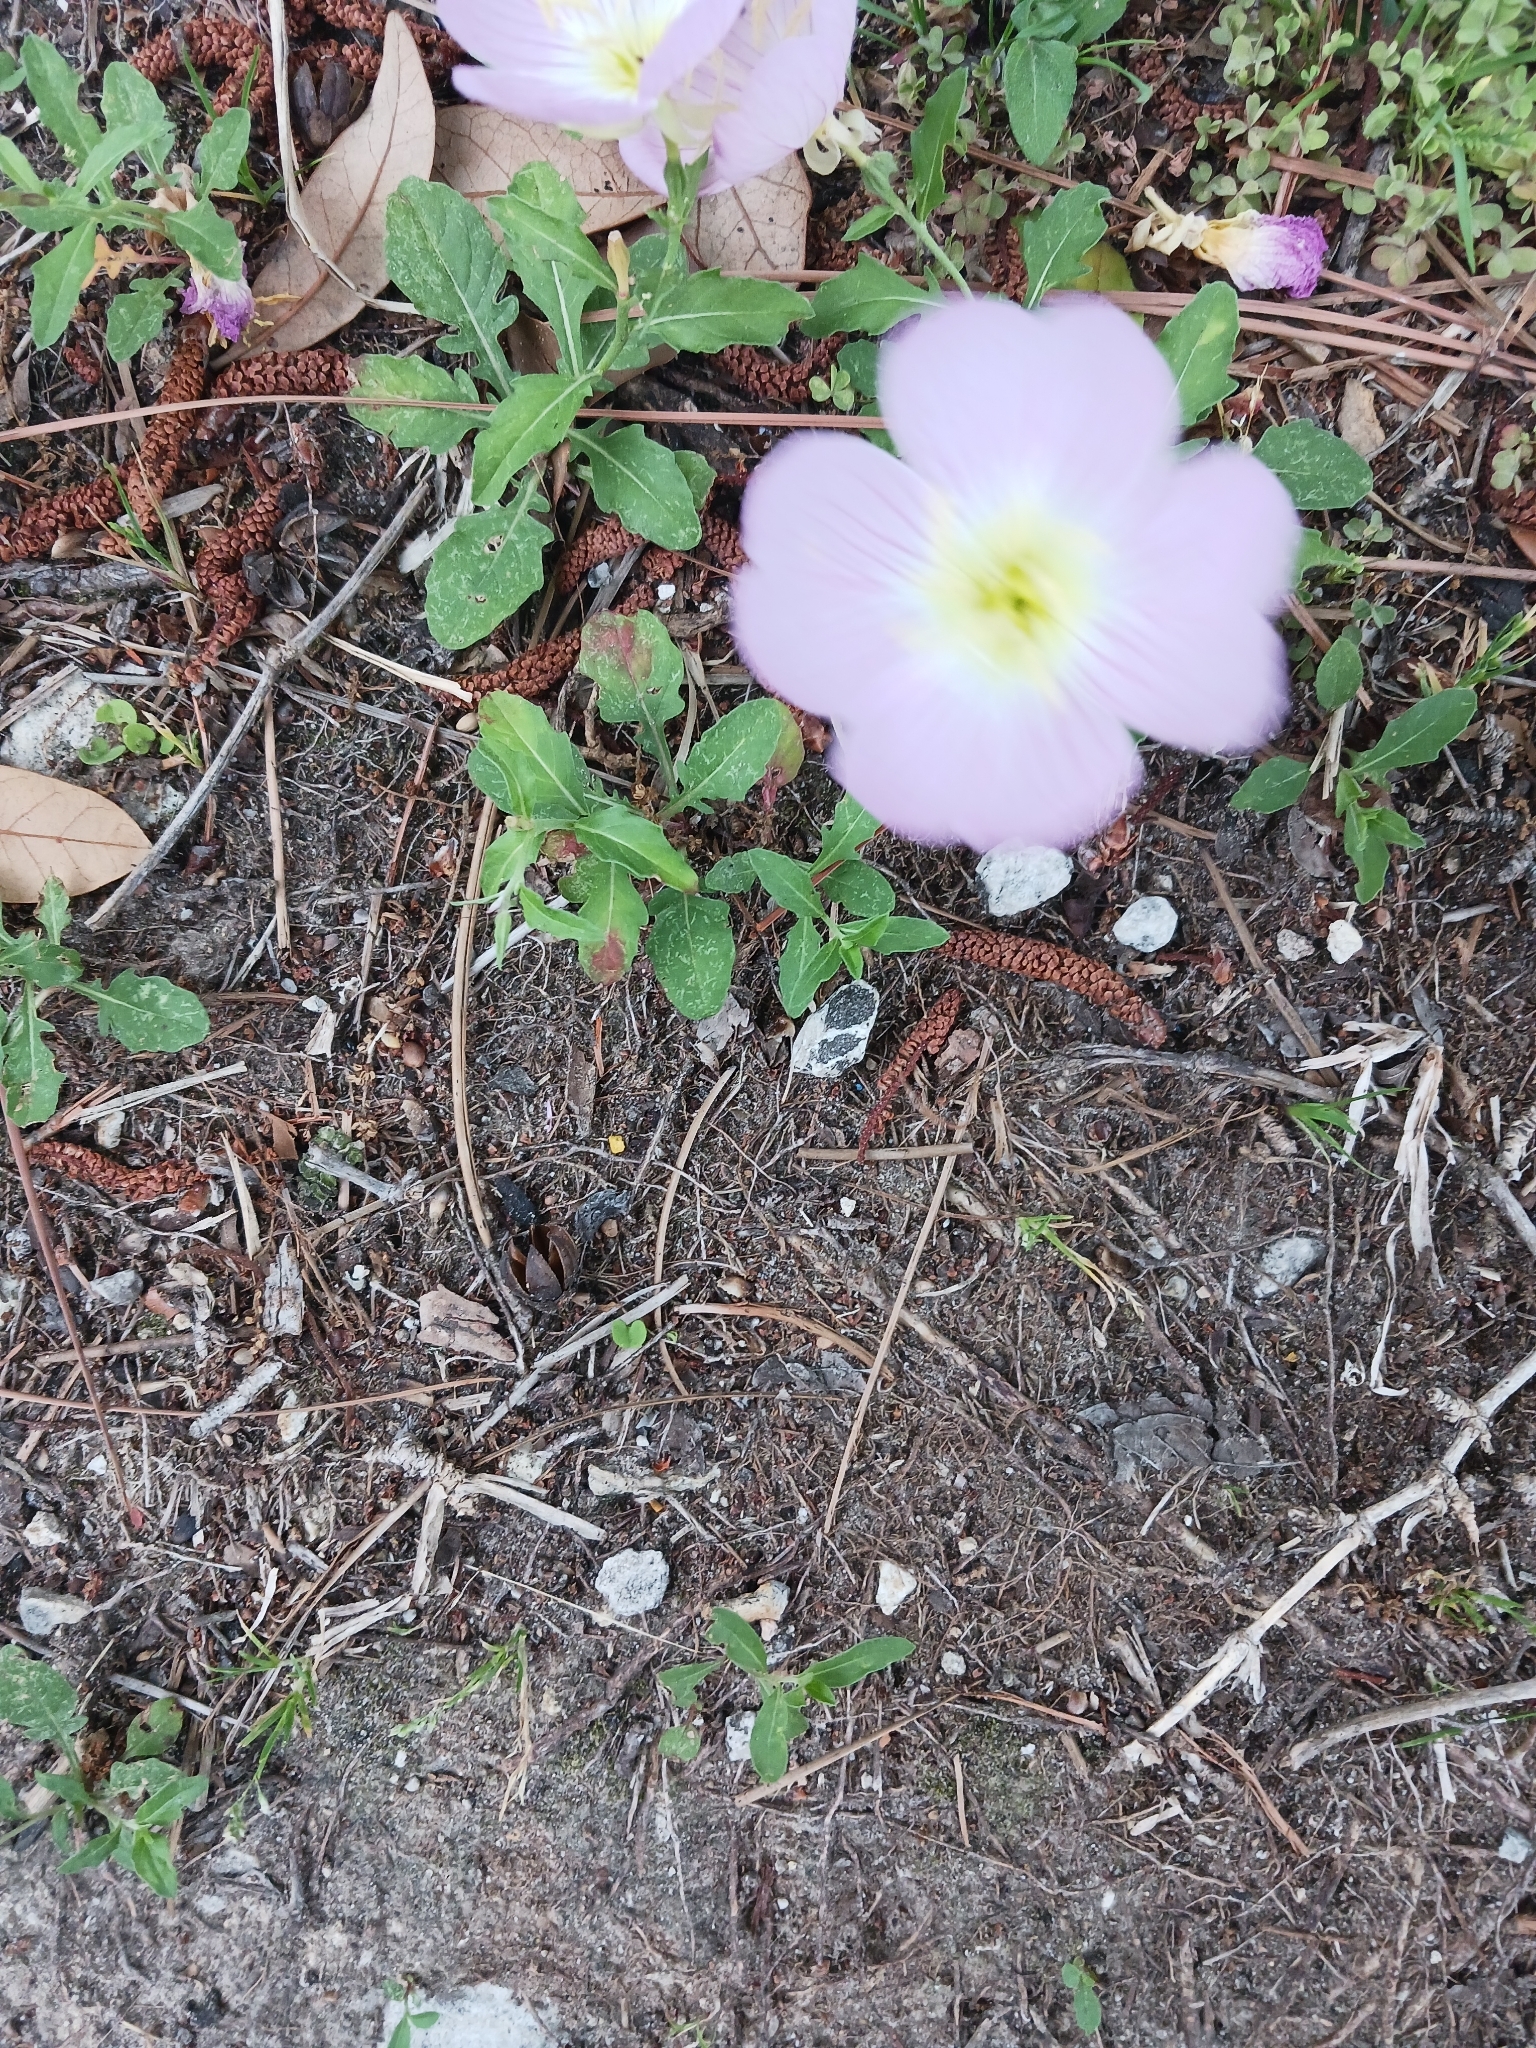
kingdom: Plantae
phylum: Tracheophyta
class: Magnoliopsida
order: Myrtales
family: Onagraceae
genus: Oenothera
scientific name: Oenothera speciosa
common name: White evening-primrose
